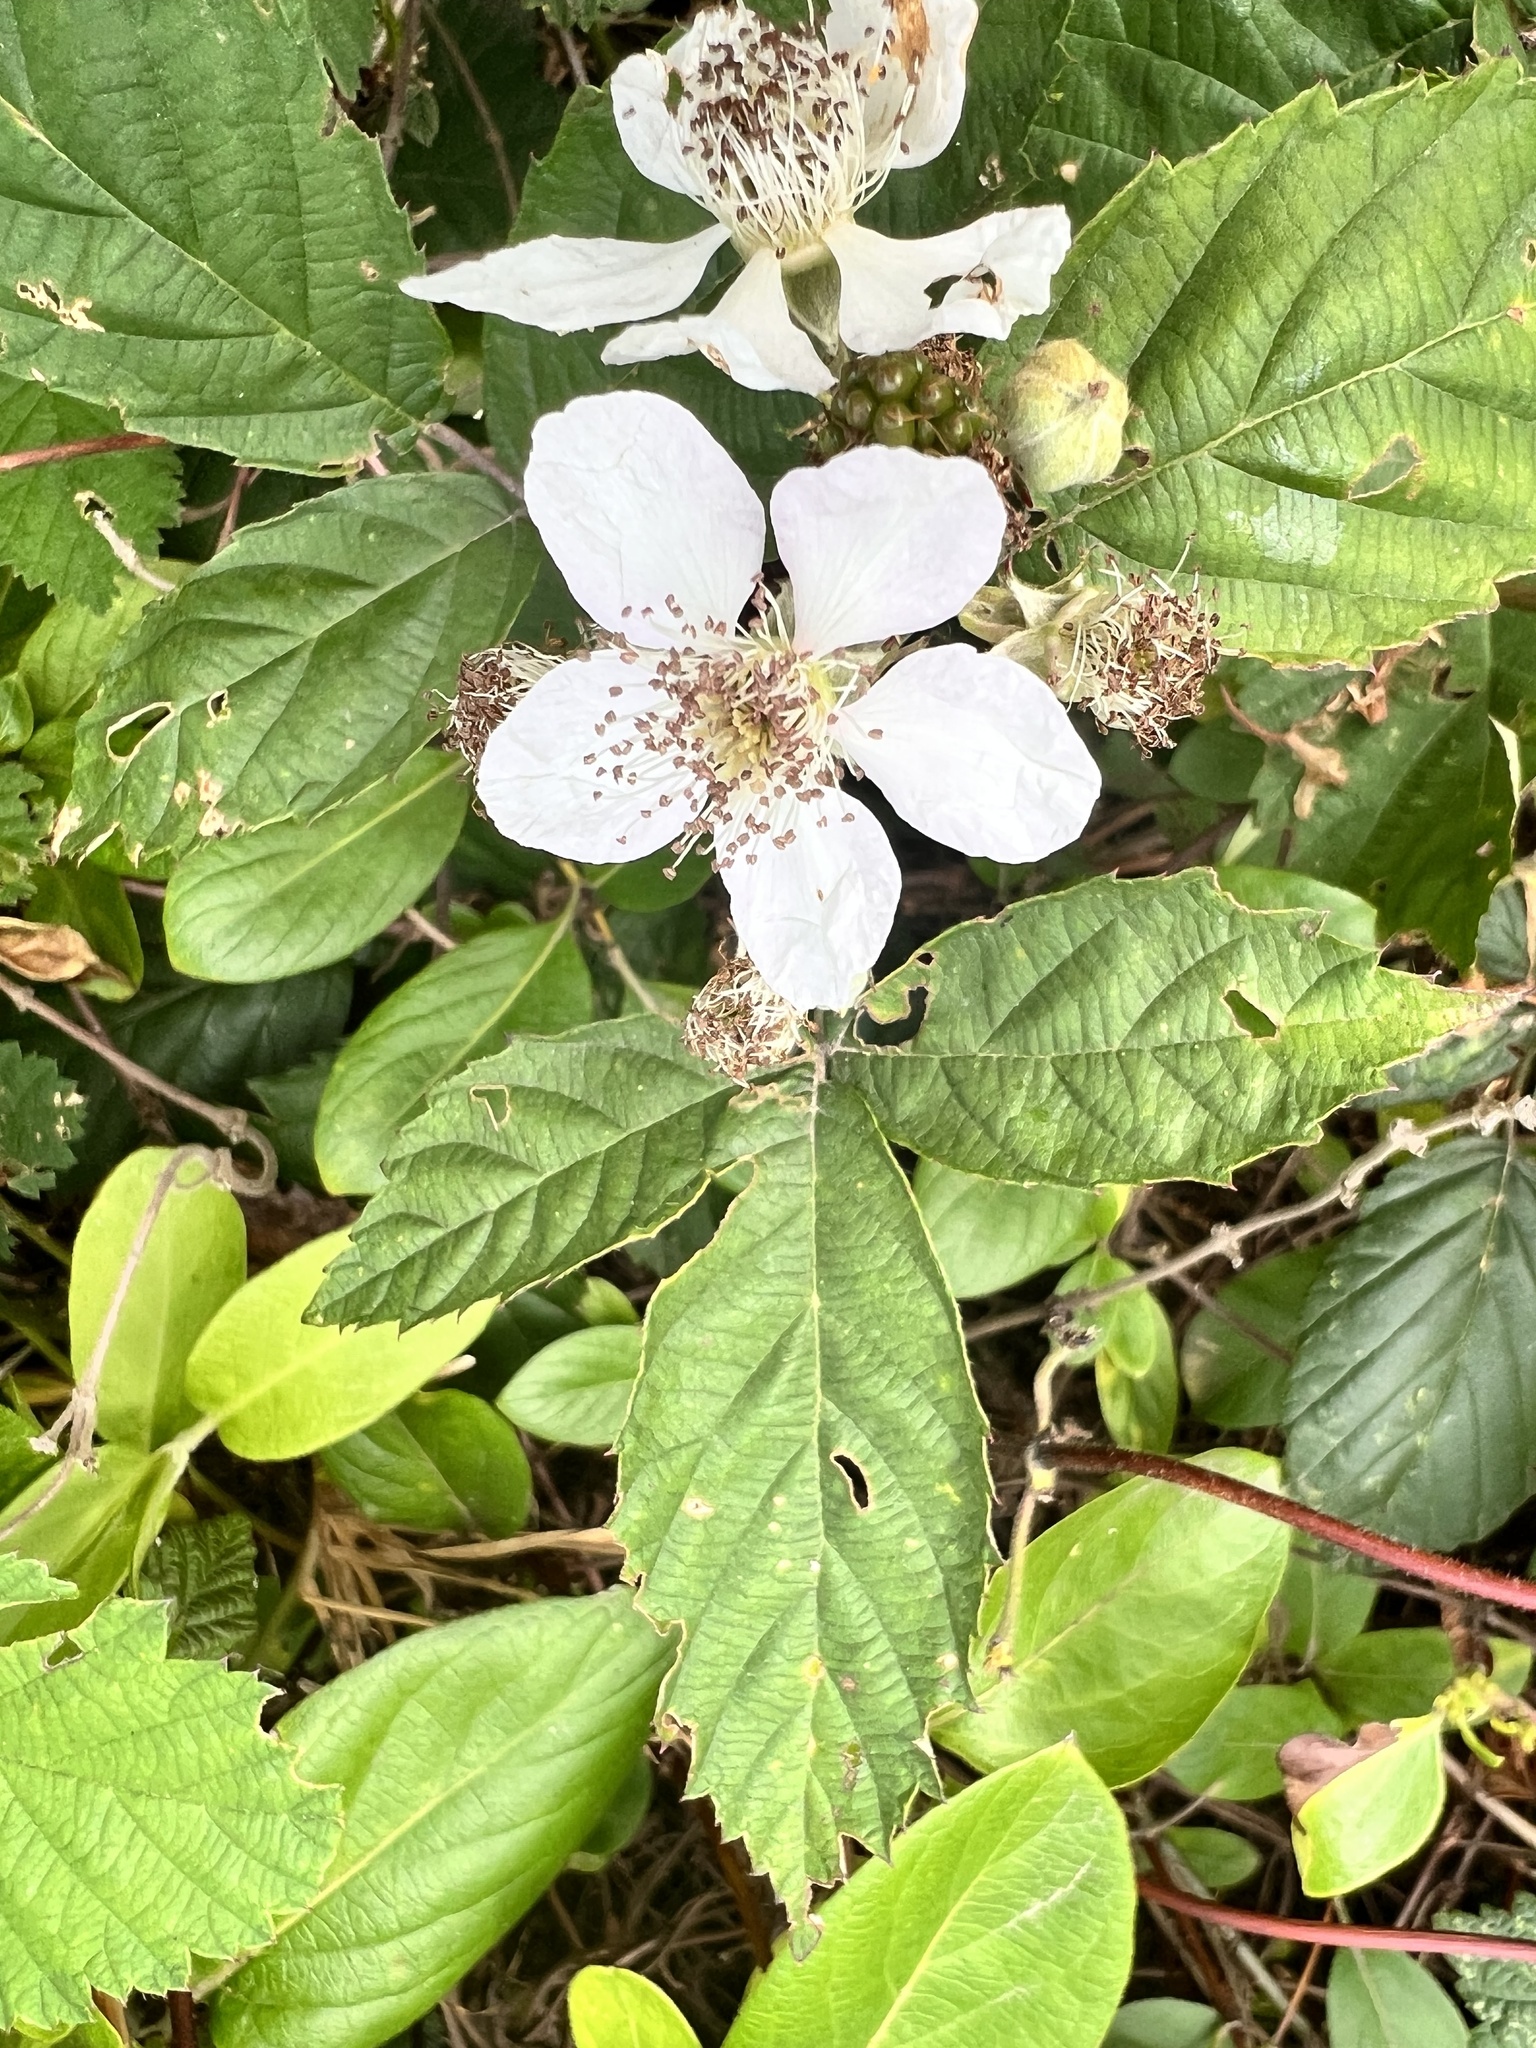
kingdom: Plantae
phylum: Tracheophyta
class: Magnoliopsida
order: Rosales
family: Rosaceae
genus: Rubus
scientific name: Rubus fruticosus
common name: Blackberry, bramble
